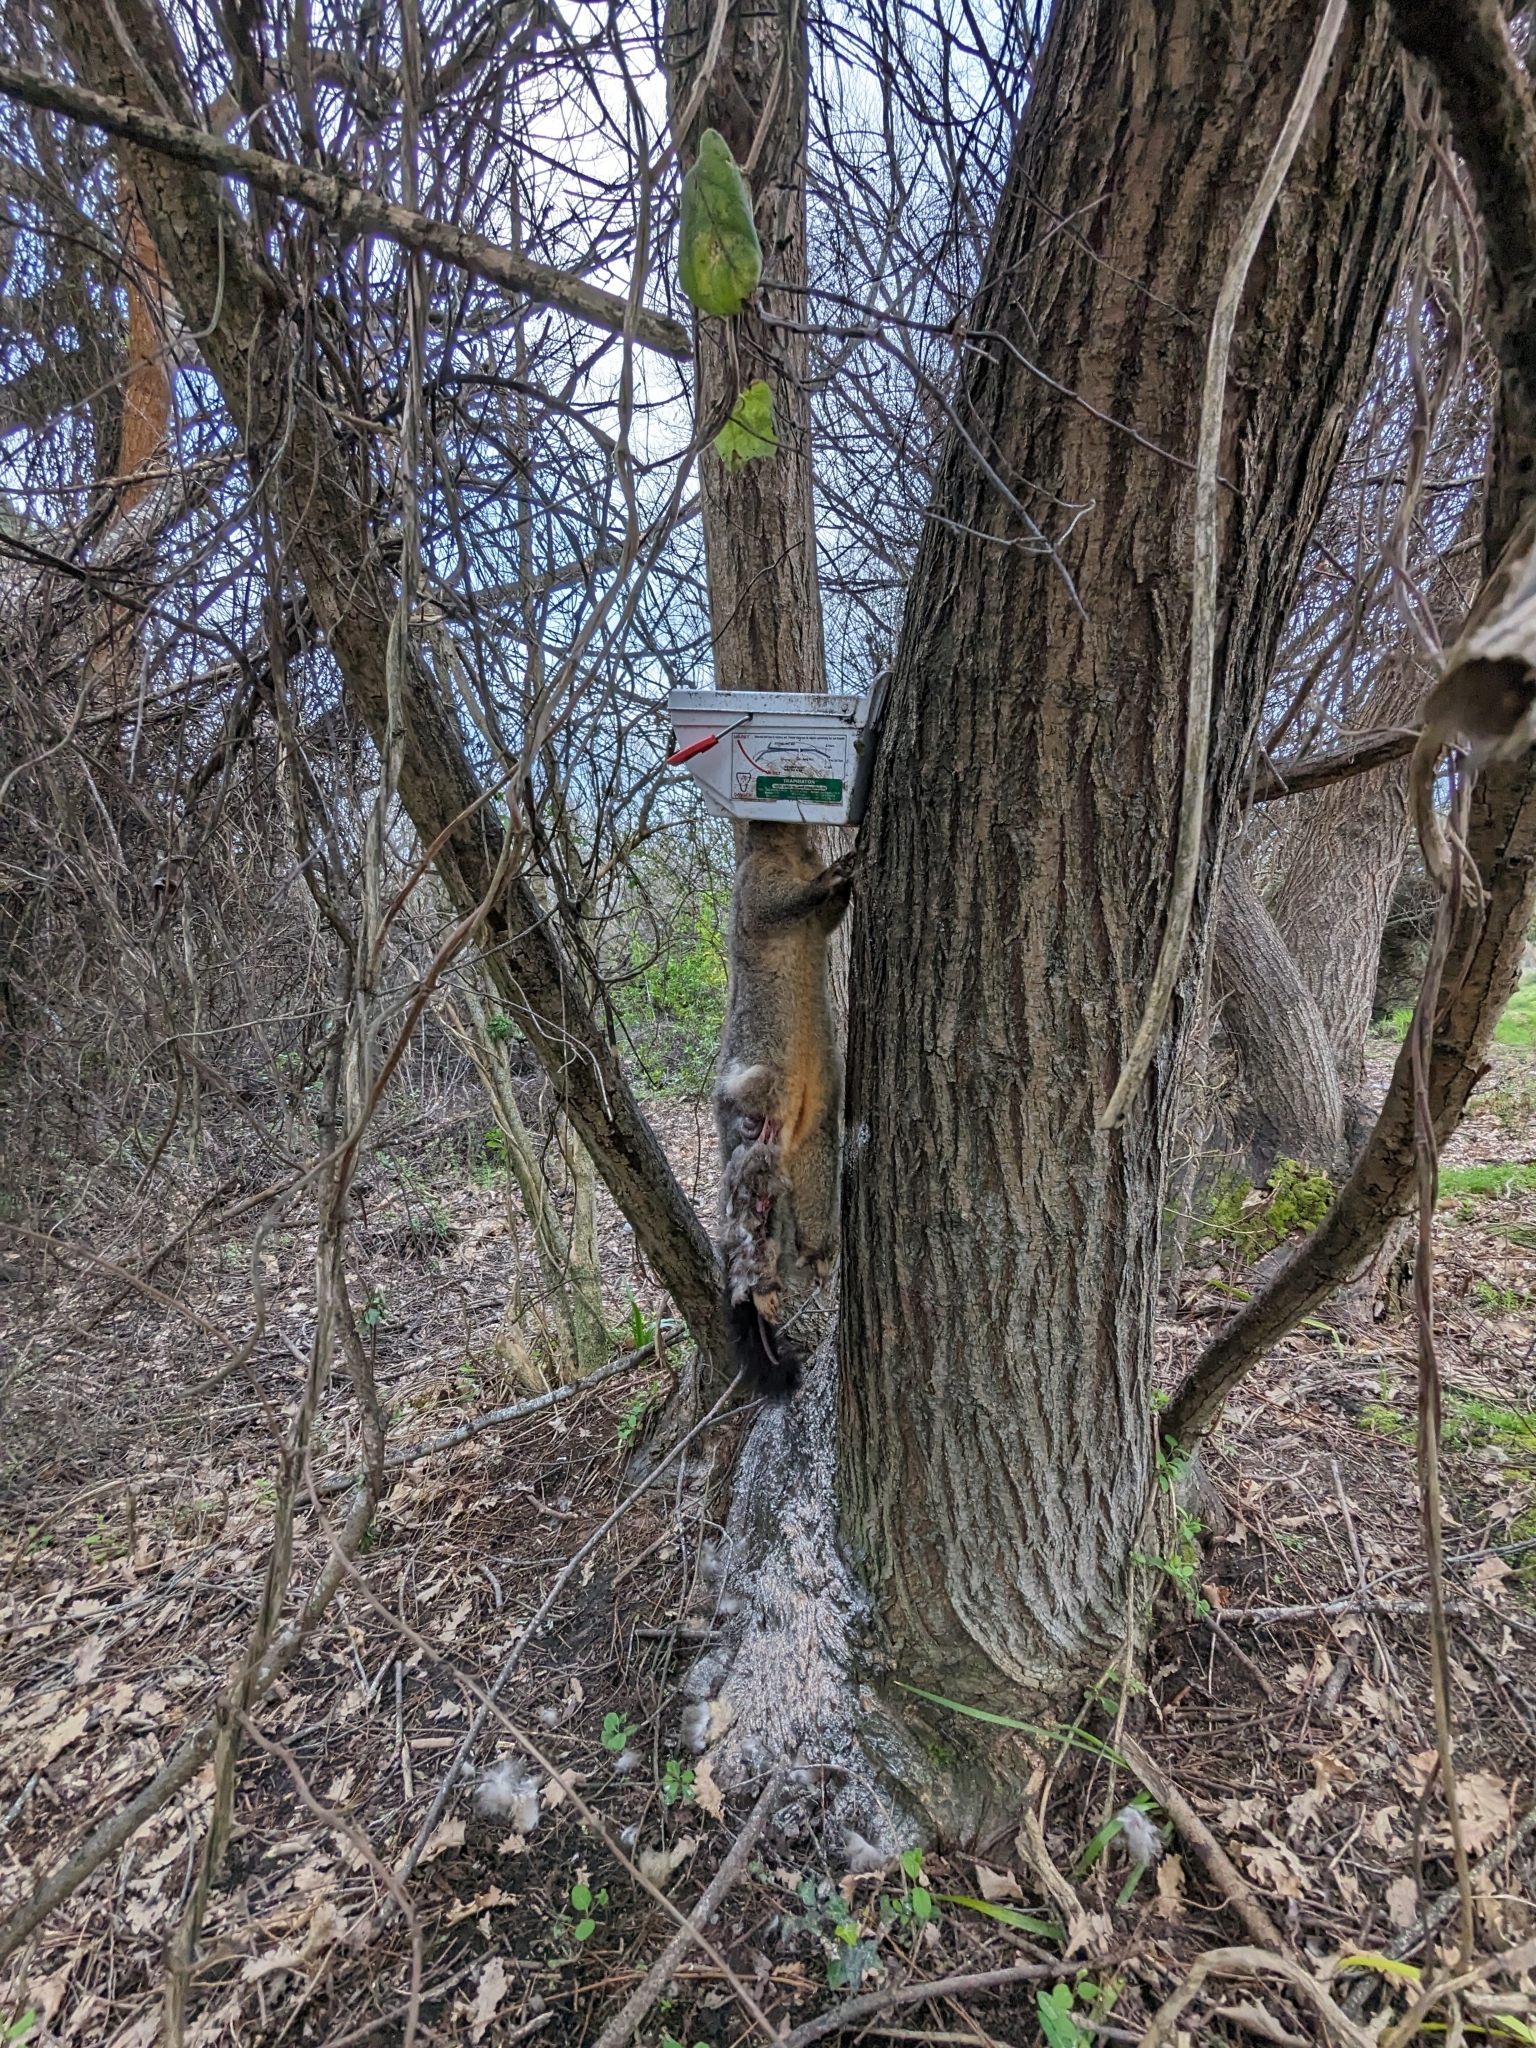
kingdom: Animalia
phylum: Chordata
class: Mammalia
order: Diprotodontia
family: Phalangeridae
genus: Trichosurus
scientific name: Trichosurus vulpecula
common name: Common brushtail
